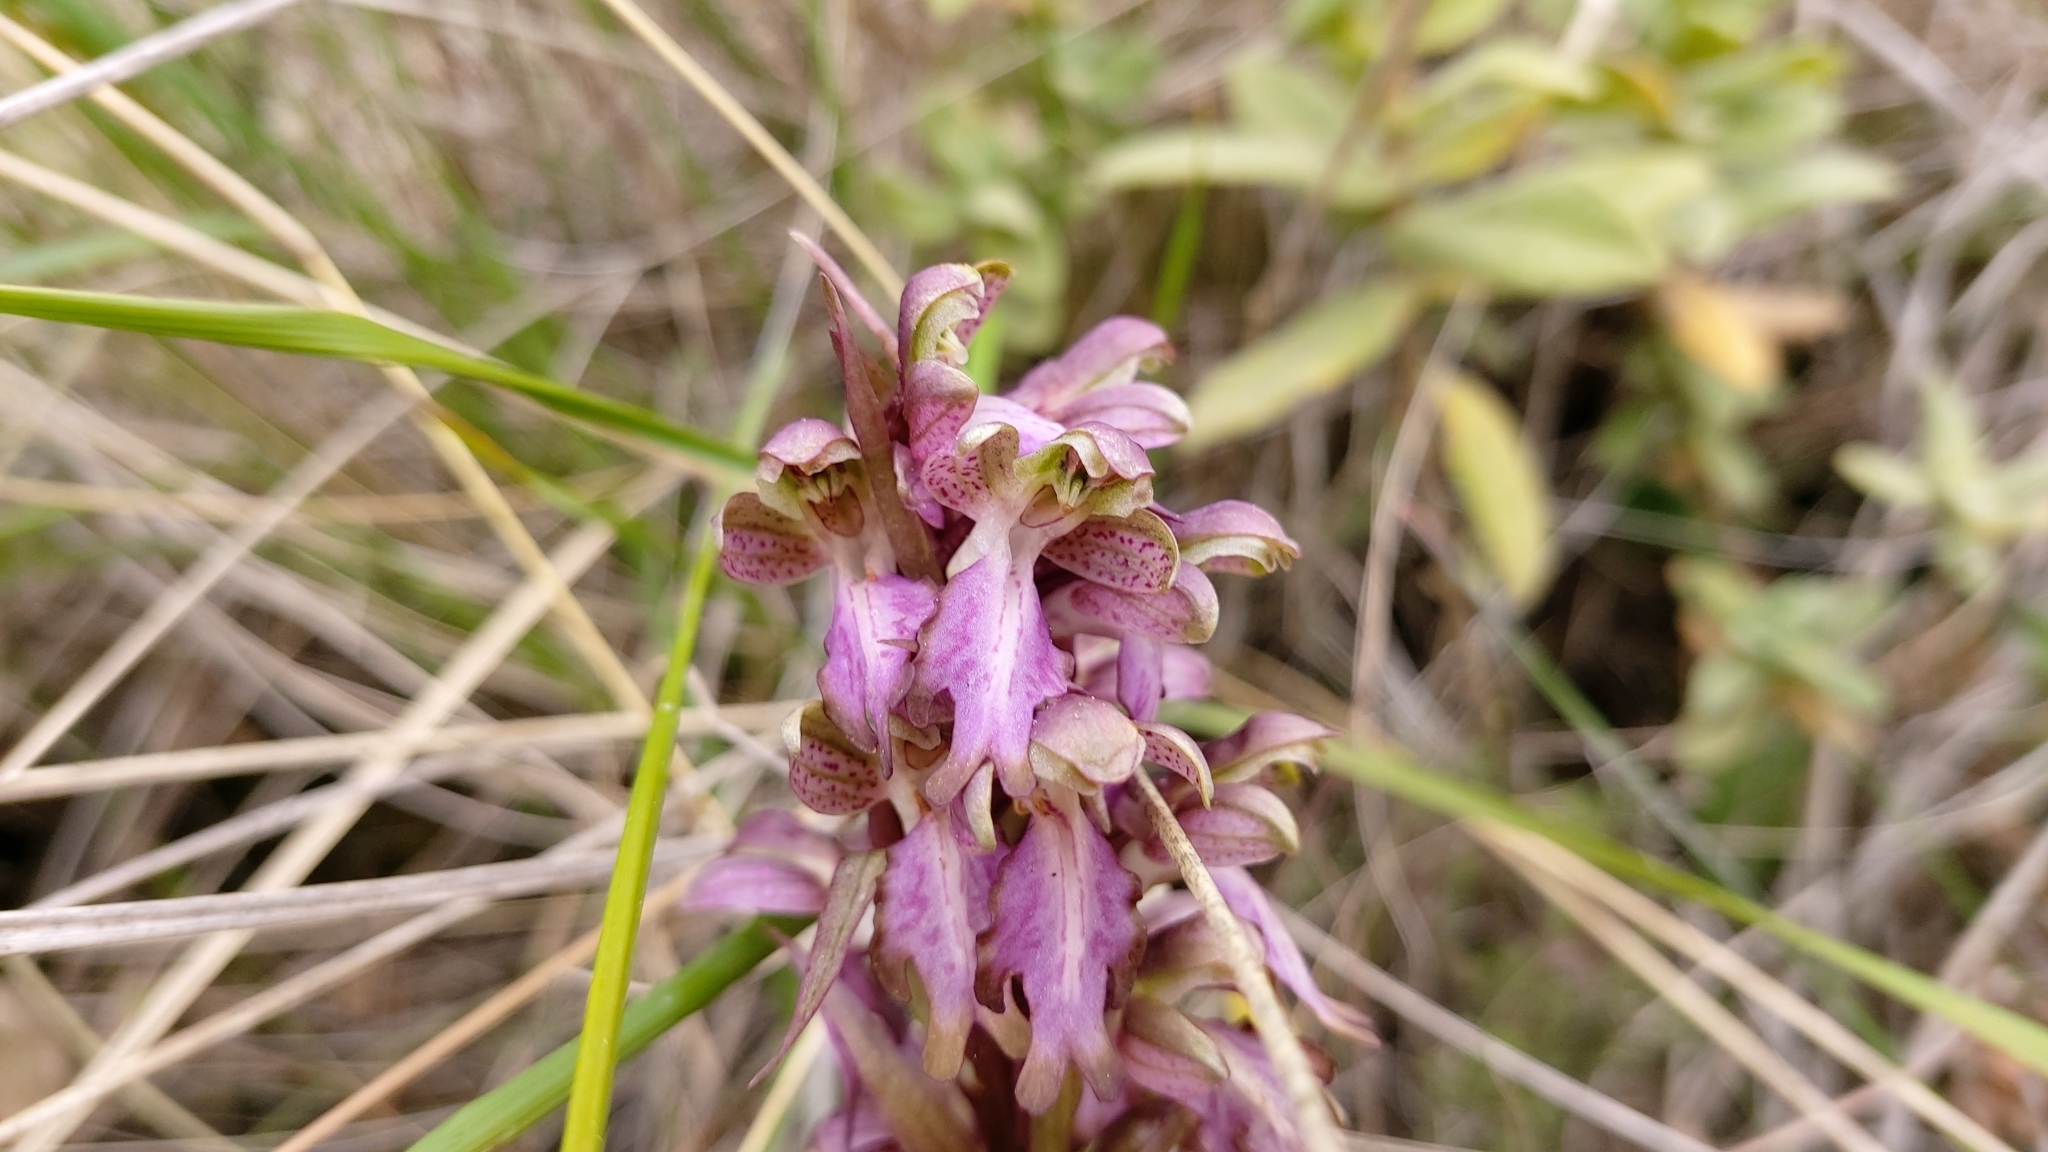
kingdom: Plantae
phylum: Tracheophyta
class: Liliopsida
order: Asparagales
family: Orchidaceae
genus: Himantoglossum
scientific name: Himantoglossum robertianum
